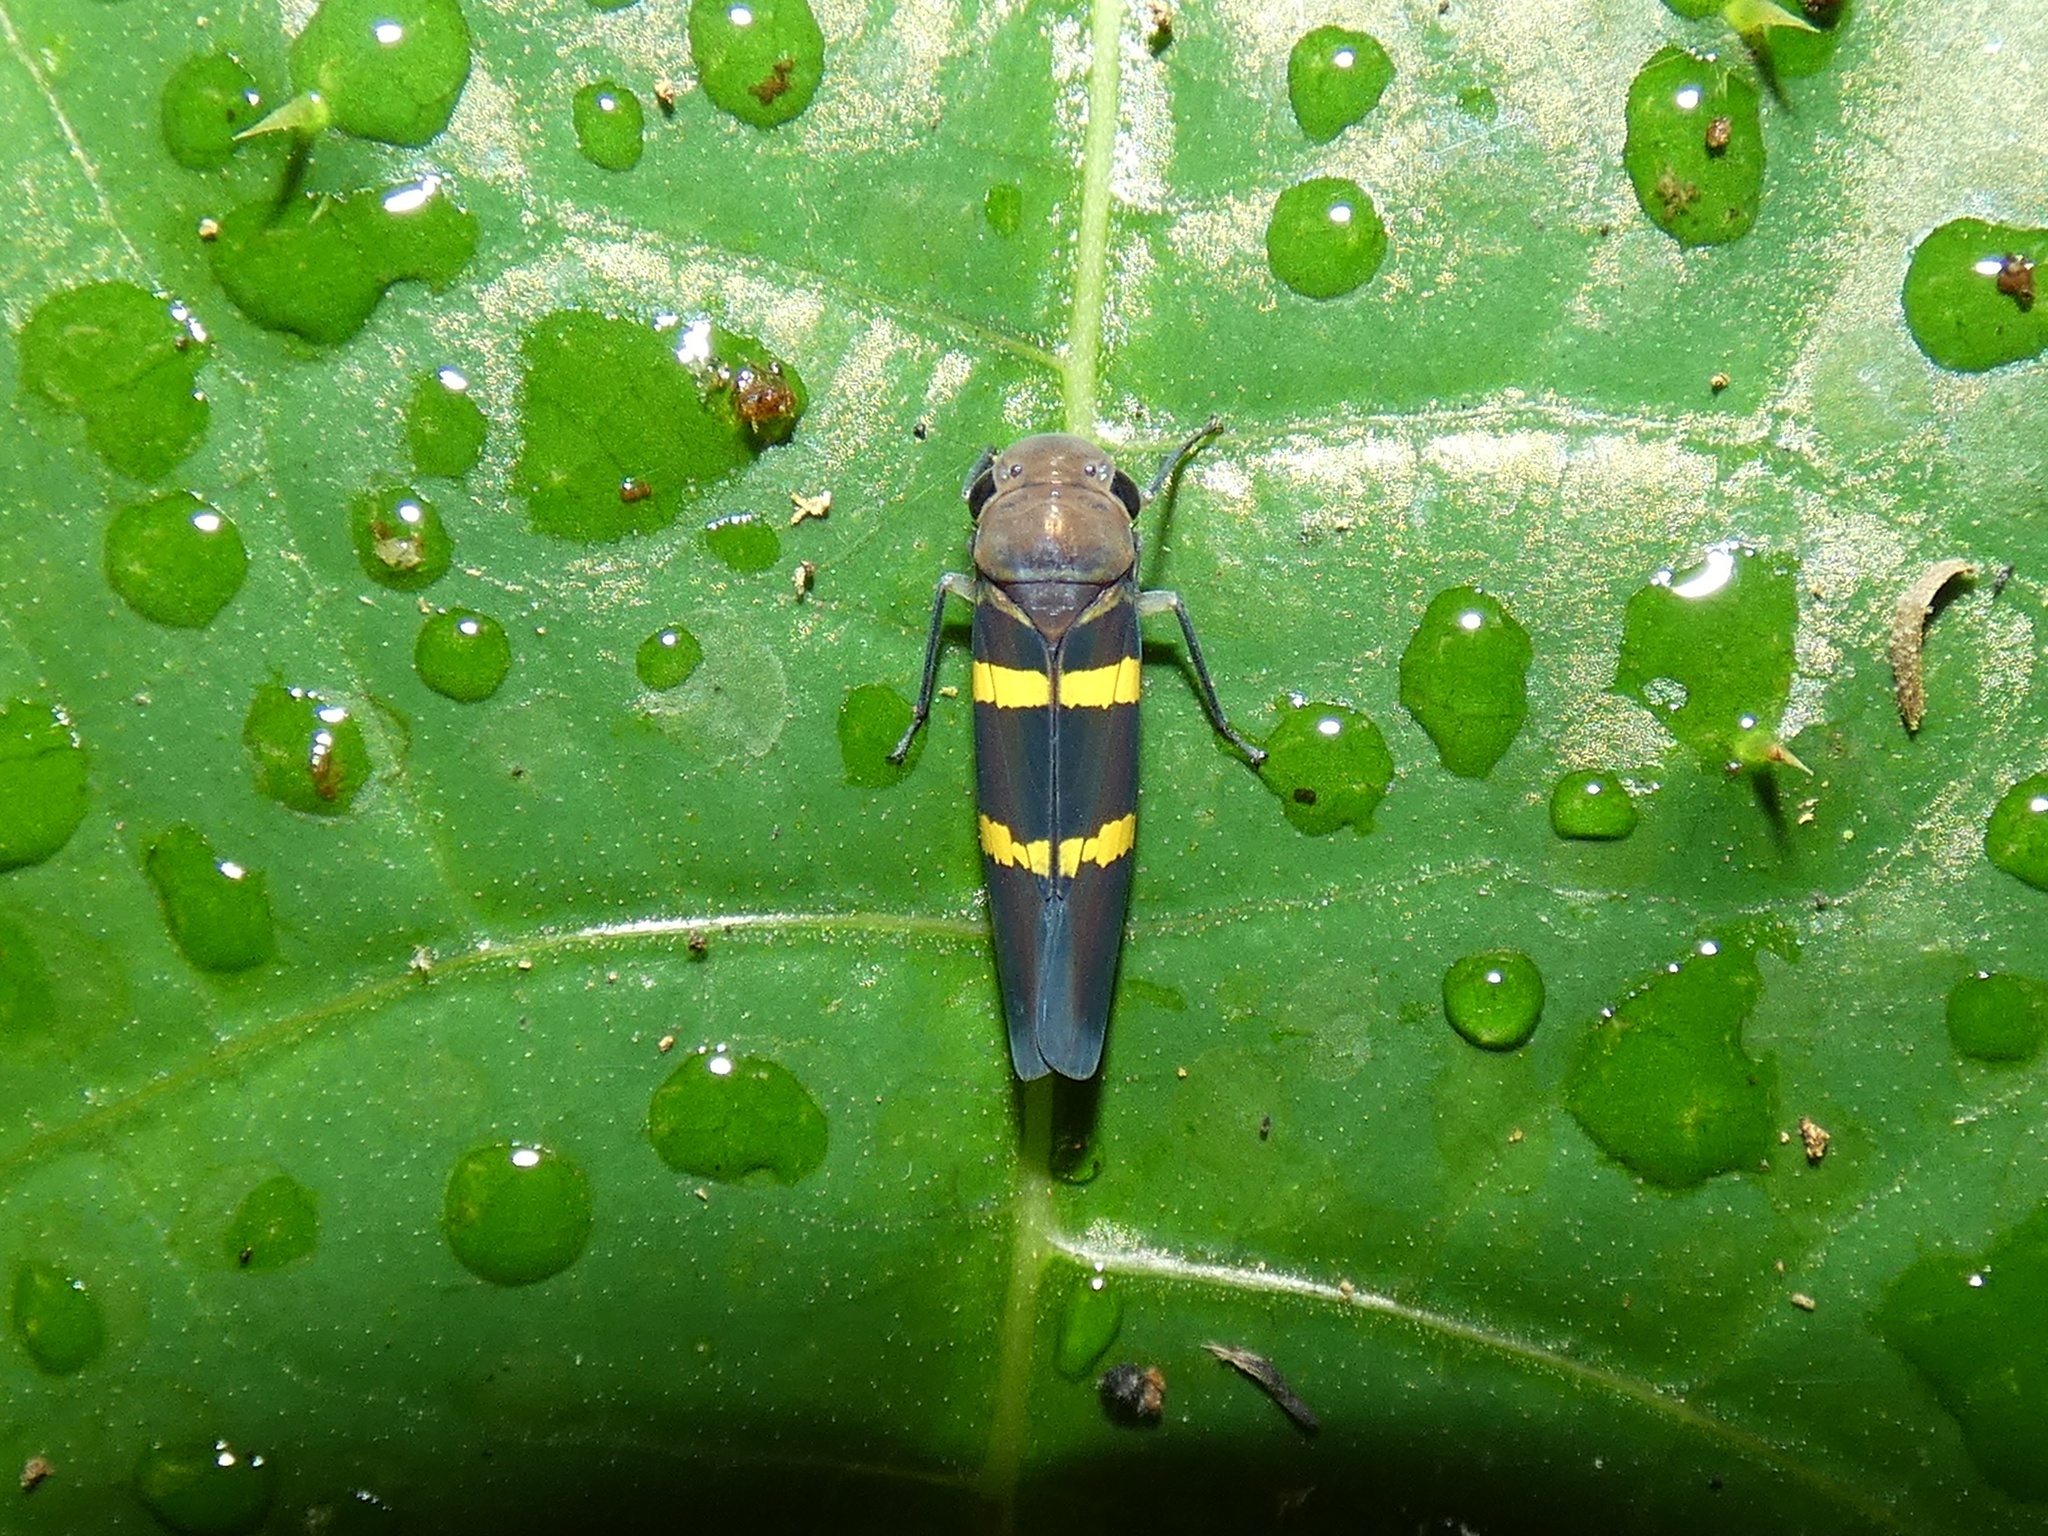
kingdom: Animalia
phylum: Arthropoda
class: Insecta
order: Hemiptera
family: Cicadellidae
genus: Amblyscarta
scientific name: Amblyscarta inca
